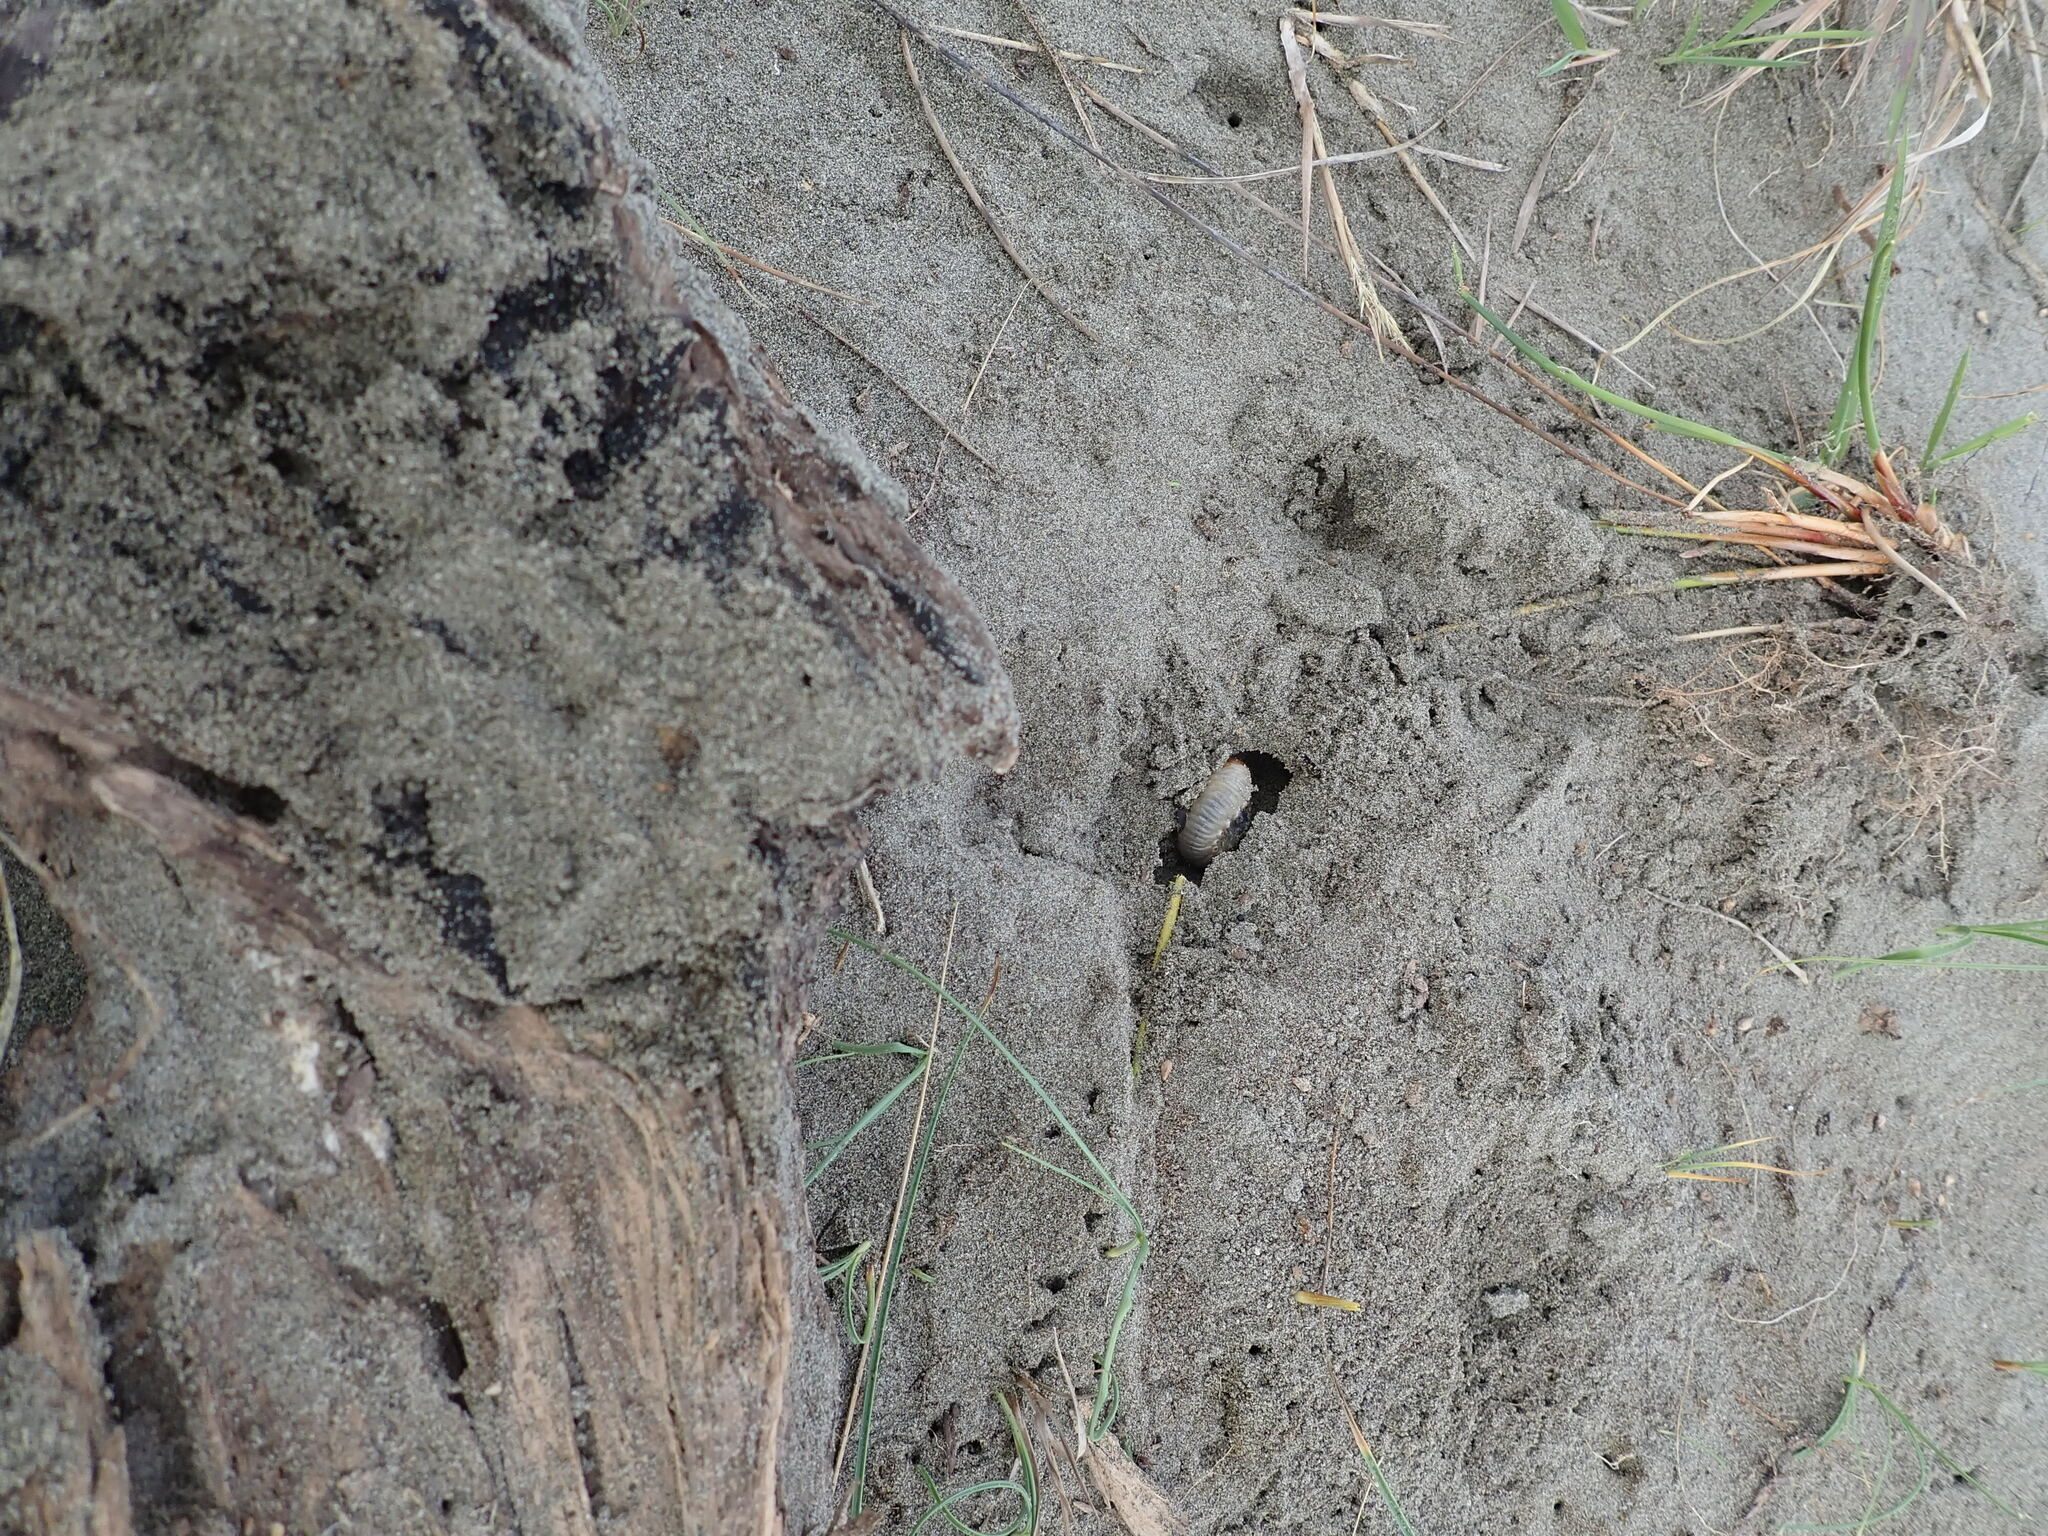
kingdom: Animalia
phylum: Arthropoda
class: Insecta
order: Coleoptera
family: Scarabaeidae
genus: Pericoptus
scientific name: Pericoptus truncatus
